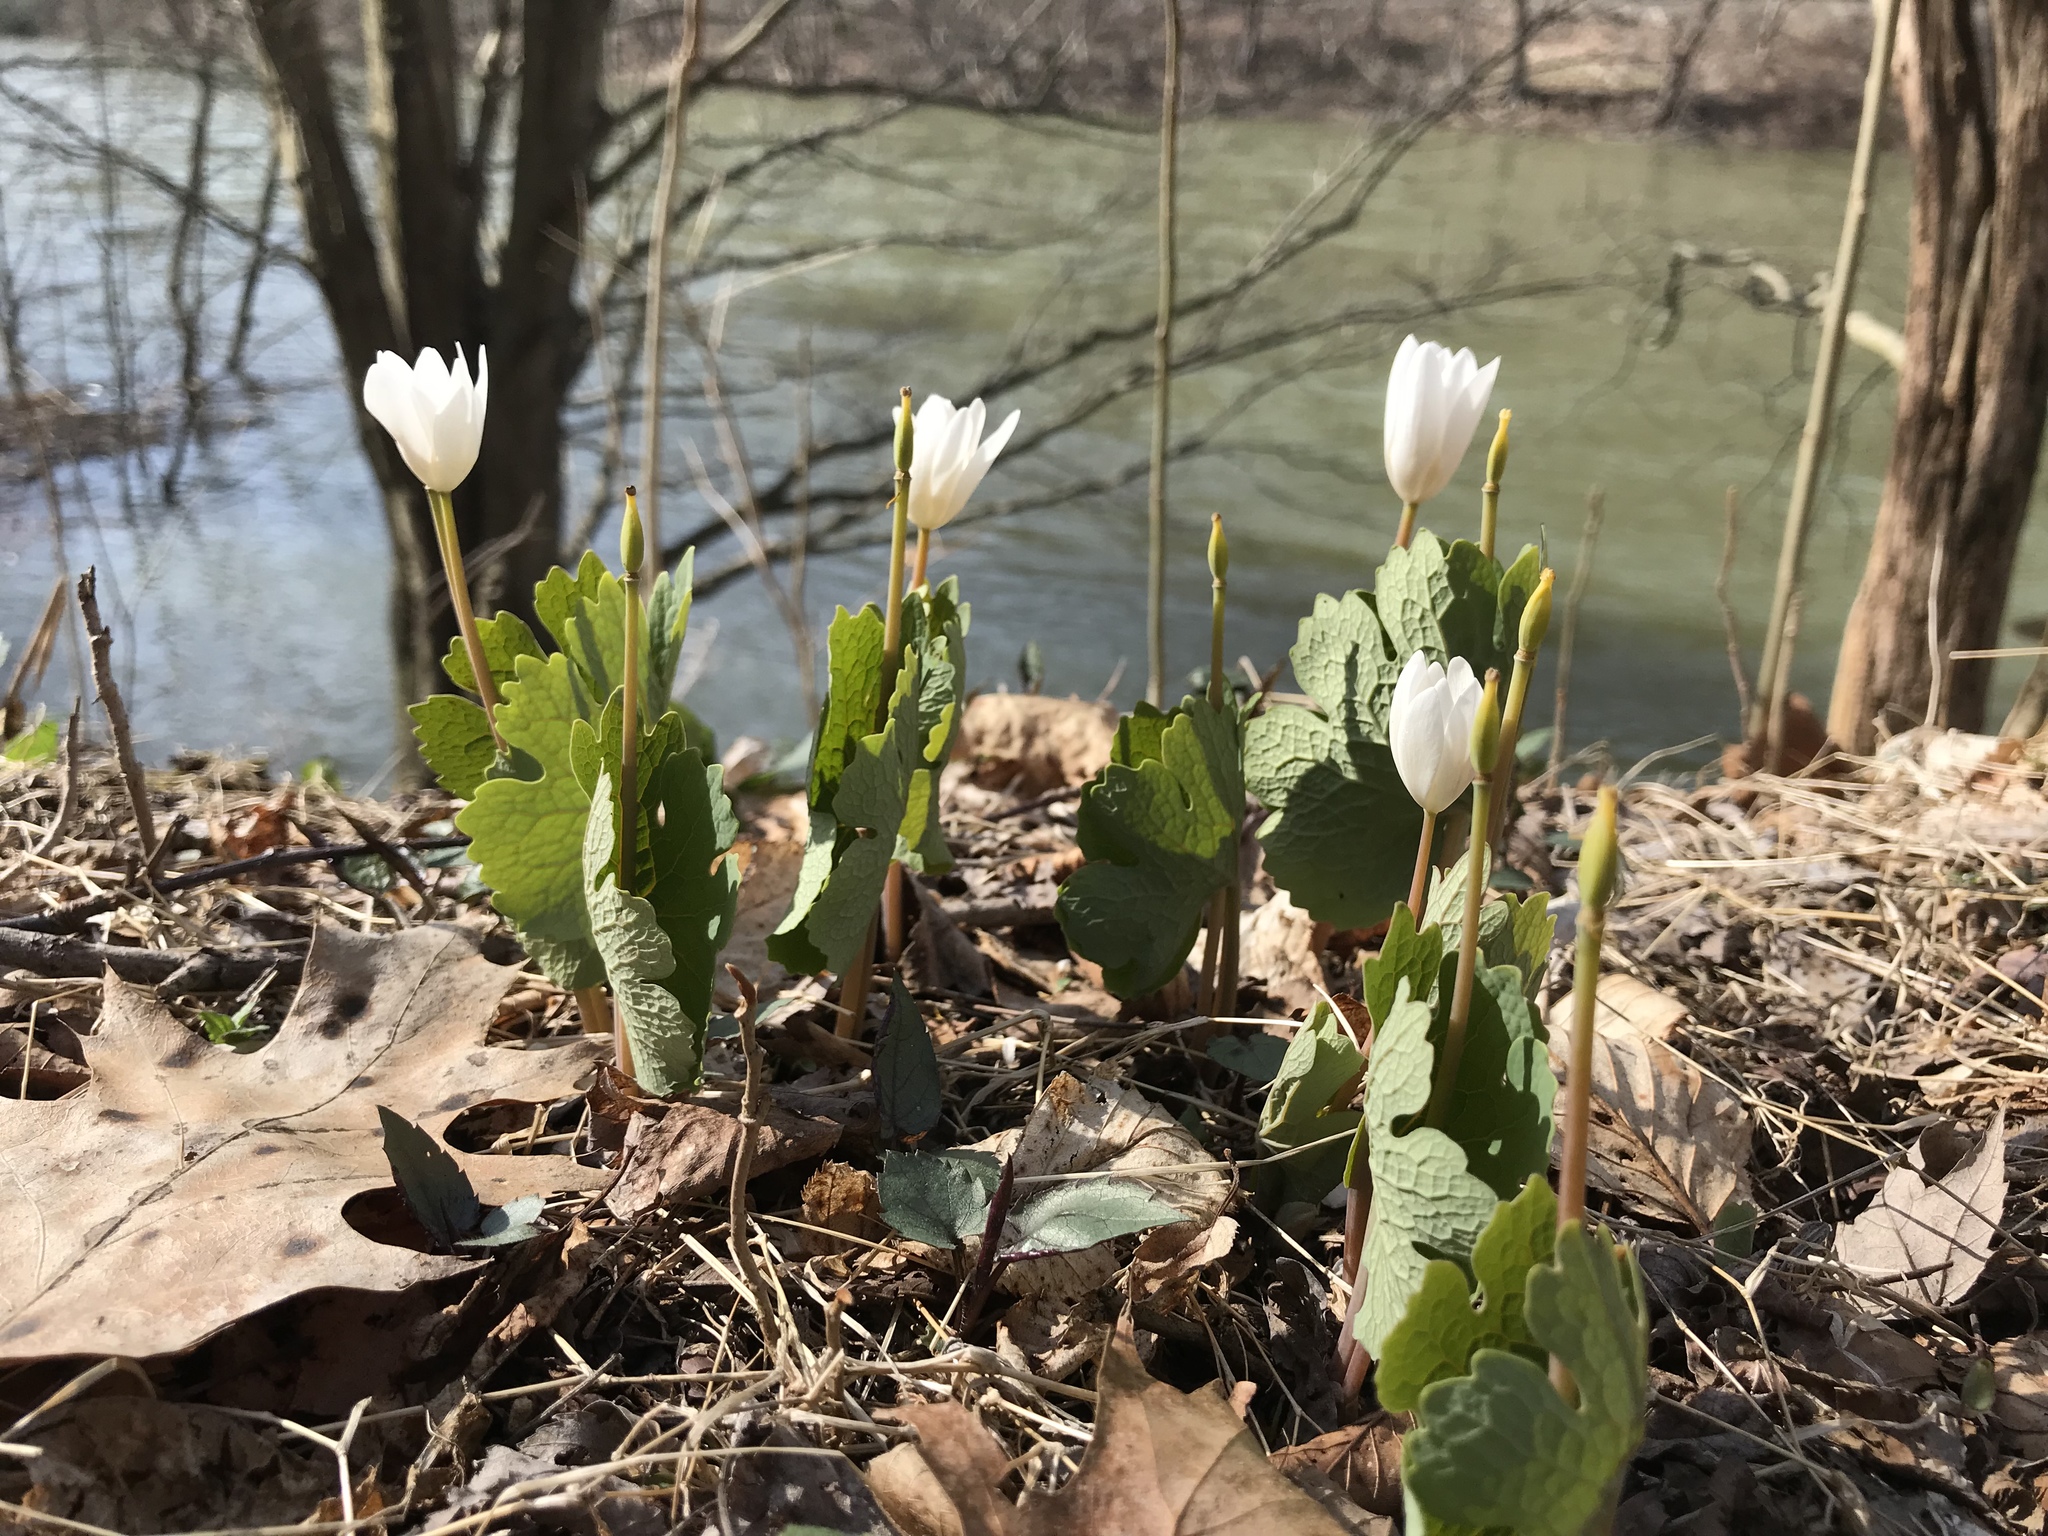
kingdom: Plantae
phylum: Tracheophyta
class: Magnoliopsida
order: Ranunculales
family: Papaveraceae
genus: Sanguinaria
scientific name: Sanguinaria canadensis
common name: Bloodroot
